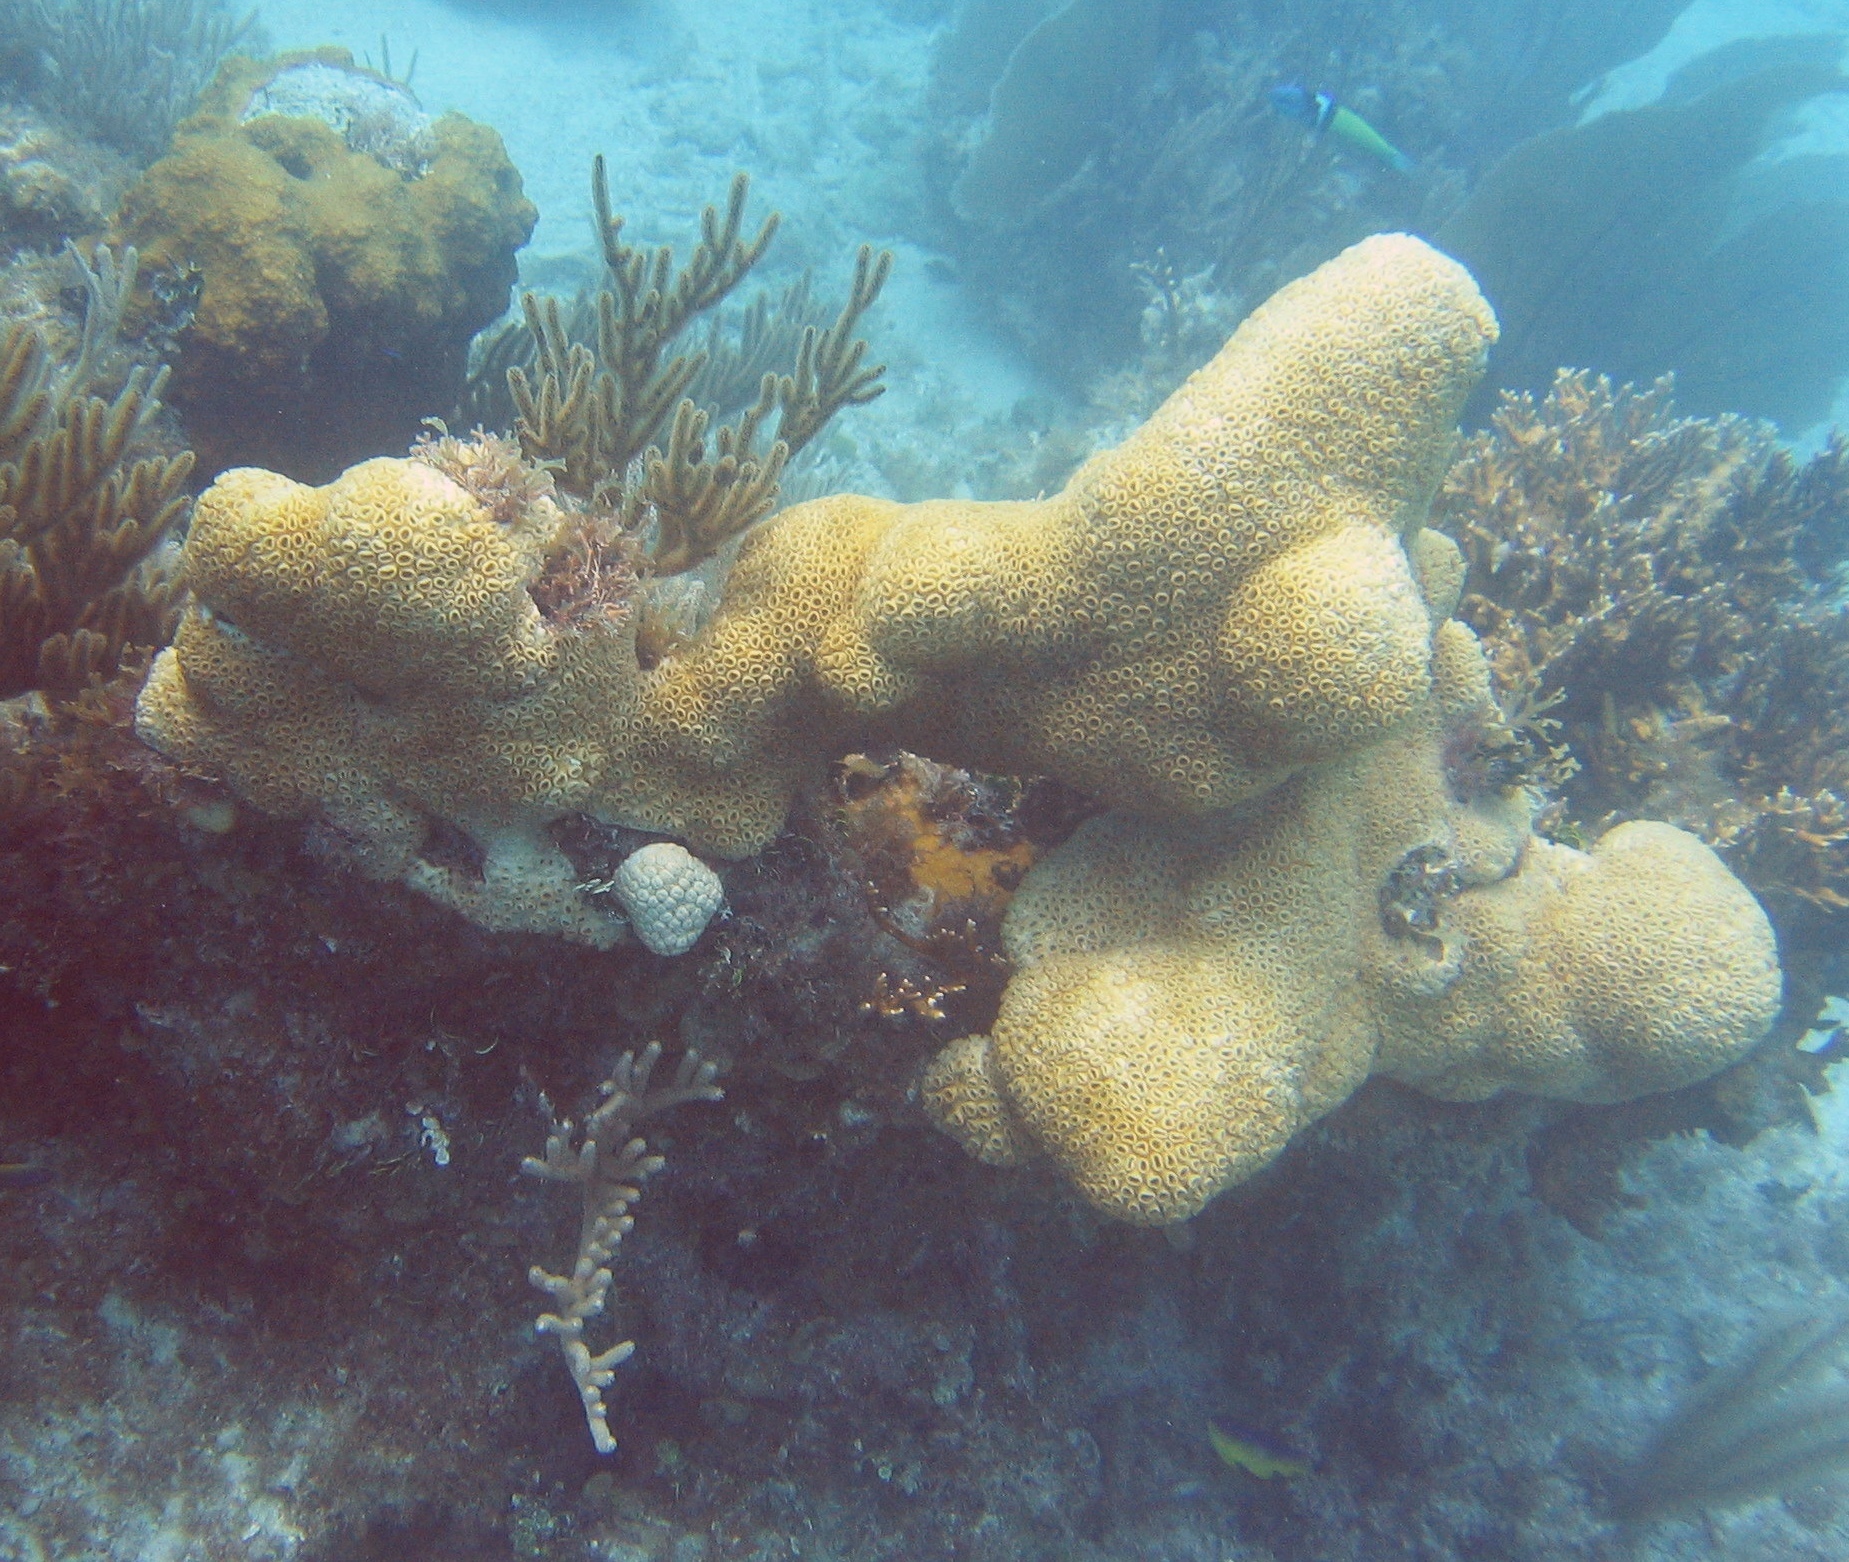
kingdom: Animalia
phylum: Cnidaria
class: Anthozoa
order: Zoantharia
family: Sphenopidae
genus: Palythoa
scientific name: Palythoa caribaeorum
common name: Encrusting colonial anemone
